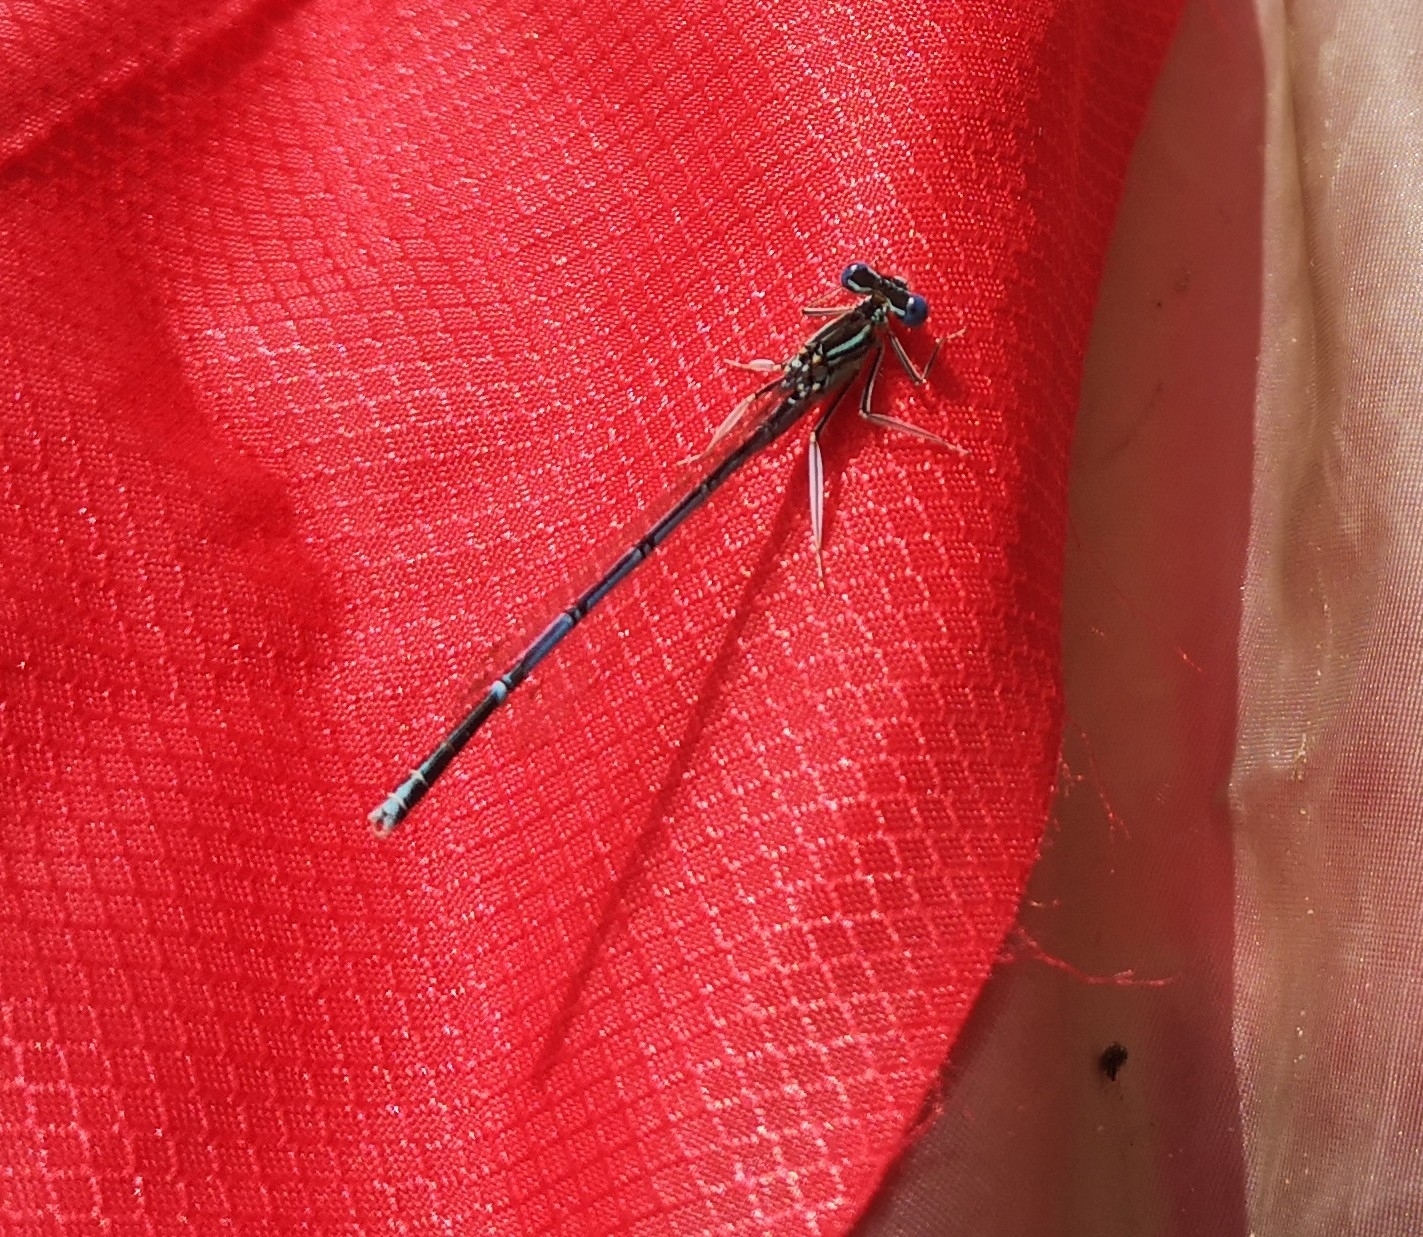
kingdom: Animalia
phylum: Arthropoda
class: Insecta
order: Odonata
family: Platycnemididae
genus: Platycnemis
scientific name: Platycnemis pennipes
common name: White-legged damselfly
